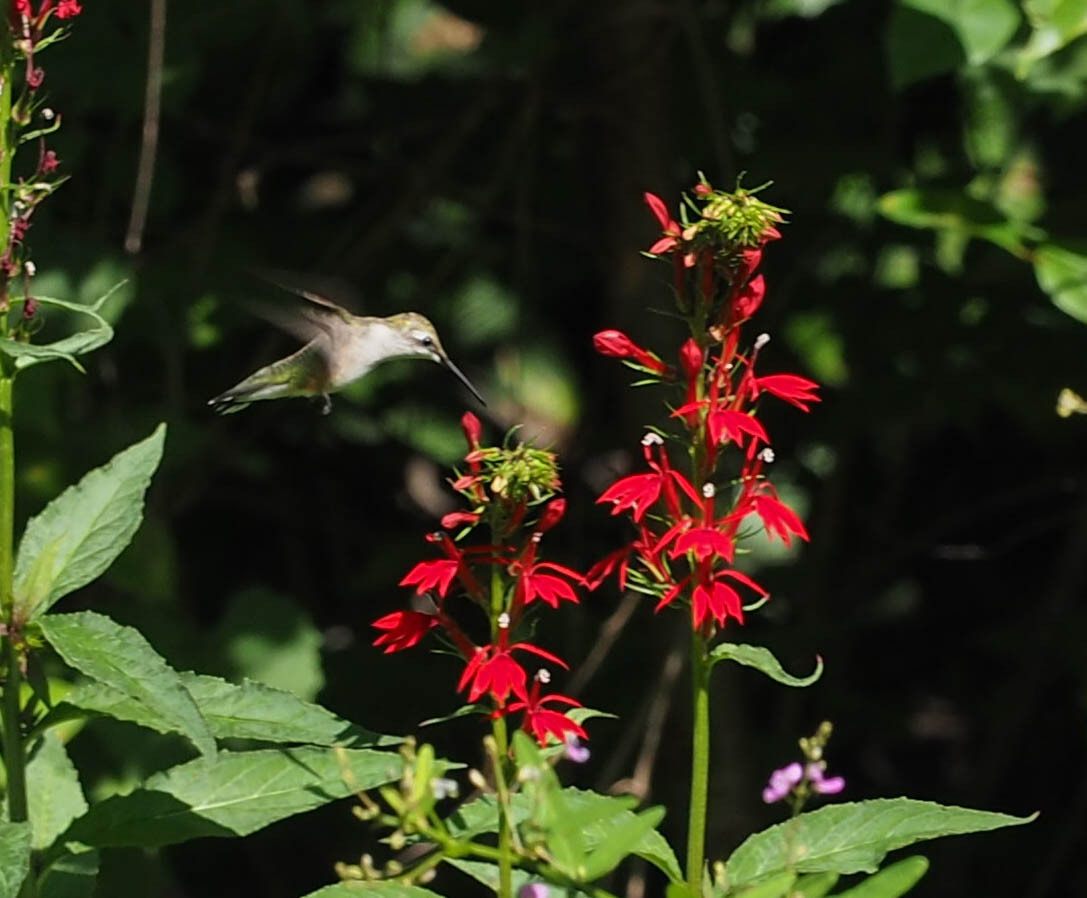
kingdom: Animalia
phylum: Chordata
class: Aves
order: Apodiformes
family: Trochilidae
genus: Archilochus
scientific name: Archilochus colubris
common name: Ruby-throated hummingbird
